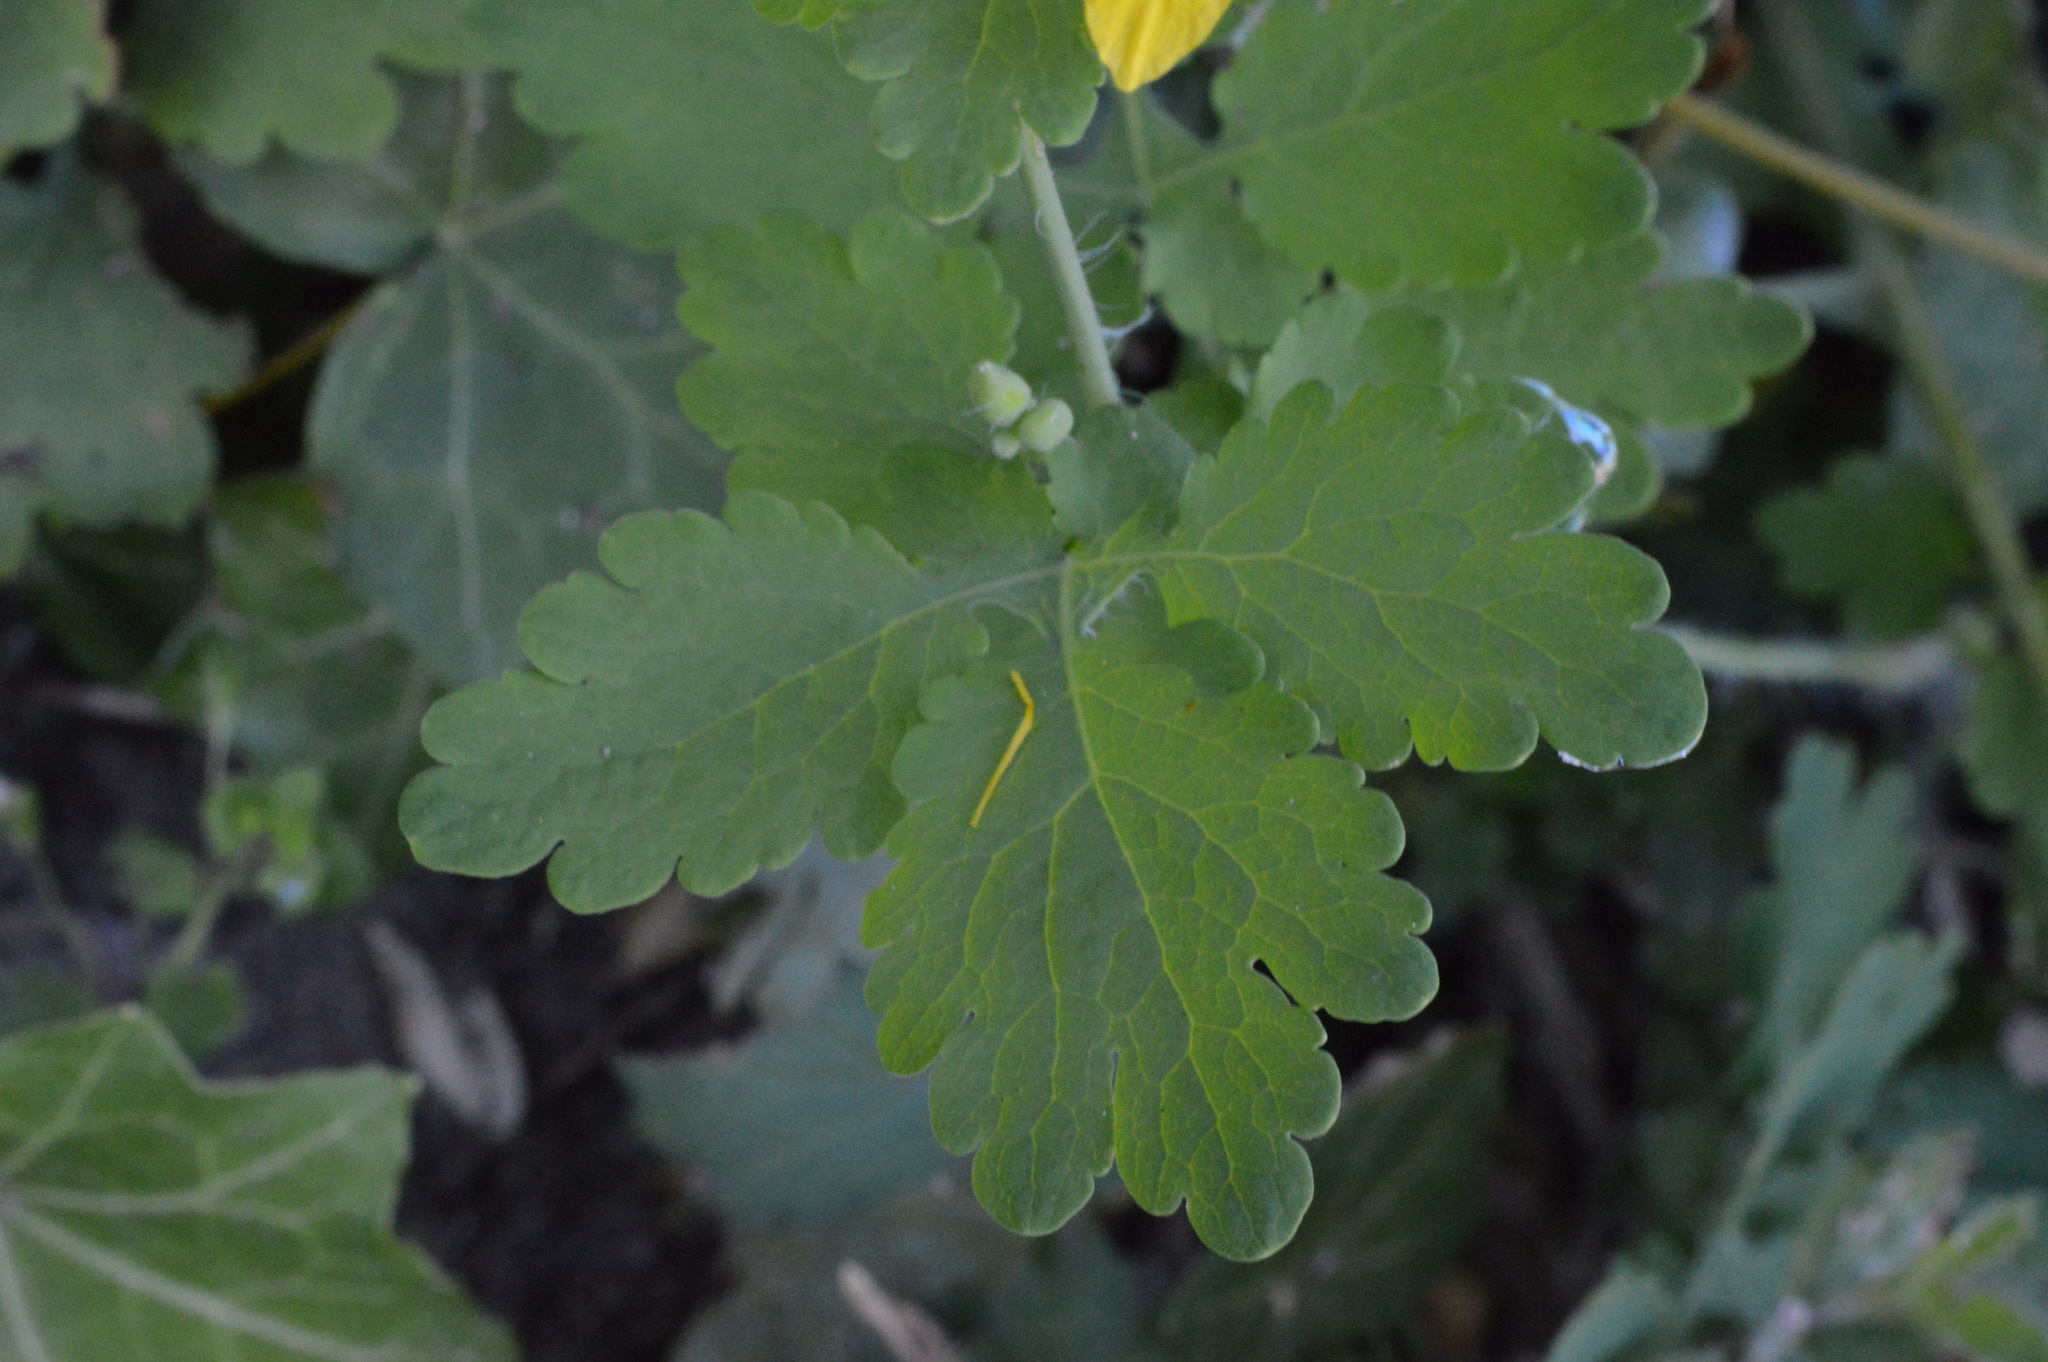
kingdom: Plantae
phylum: Tracheophyta
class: Magnoliopsida
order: Ranunculales
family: Papaveraceae
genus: Chelidonium
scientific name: Chelidonium majus
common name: Greater celandine
